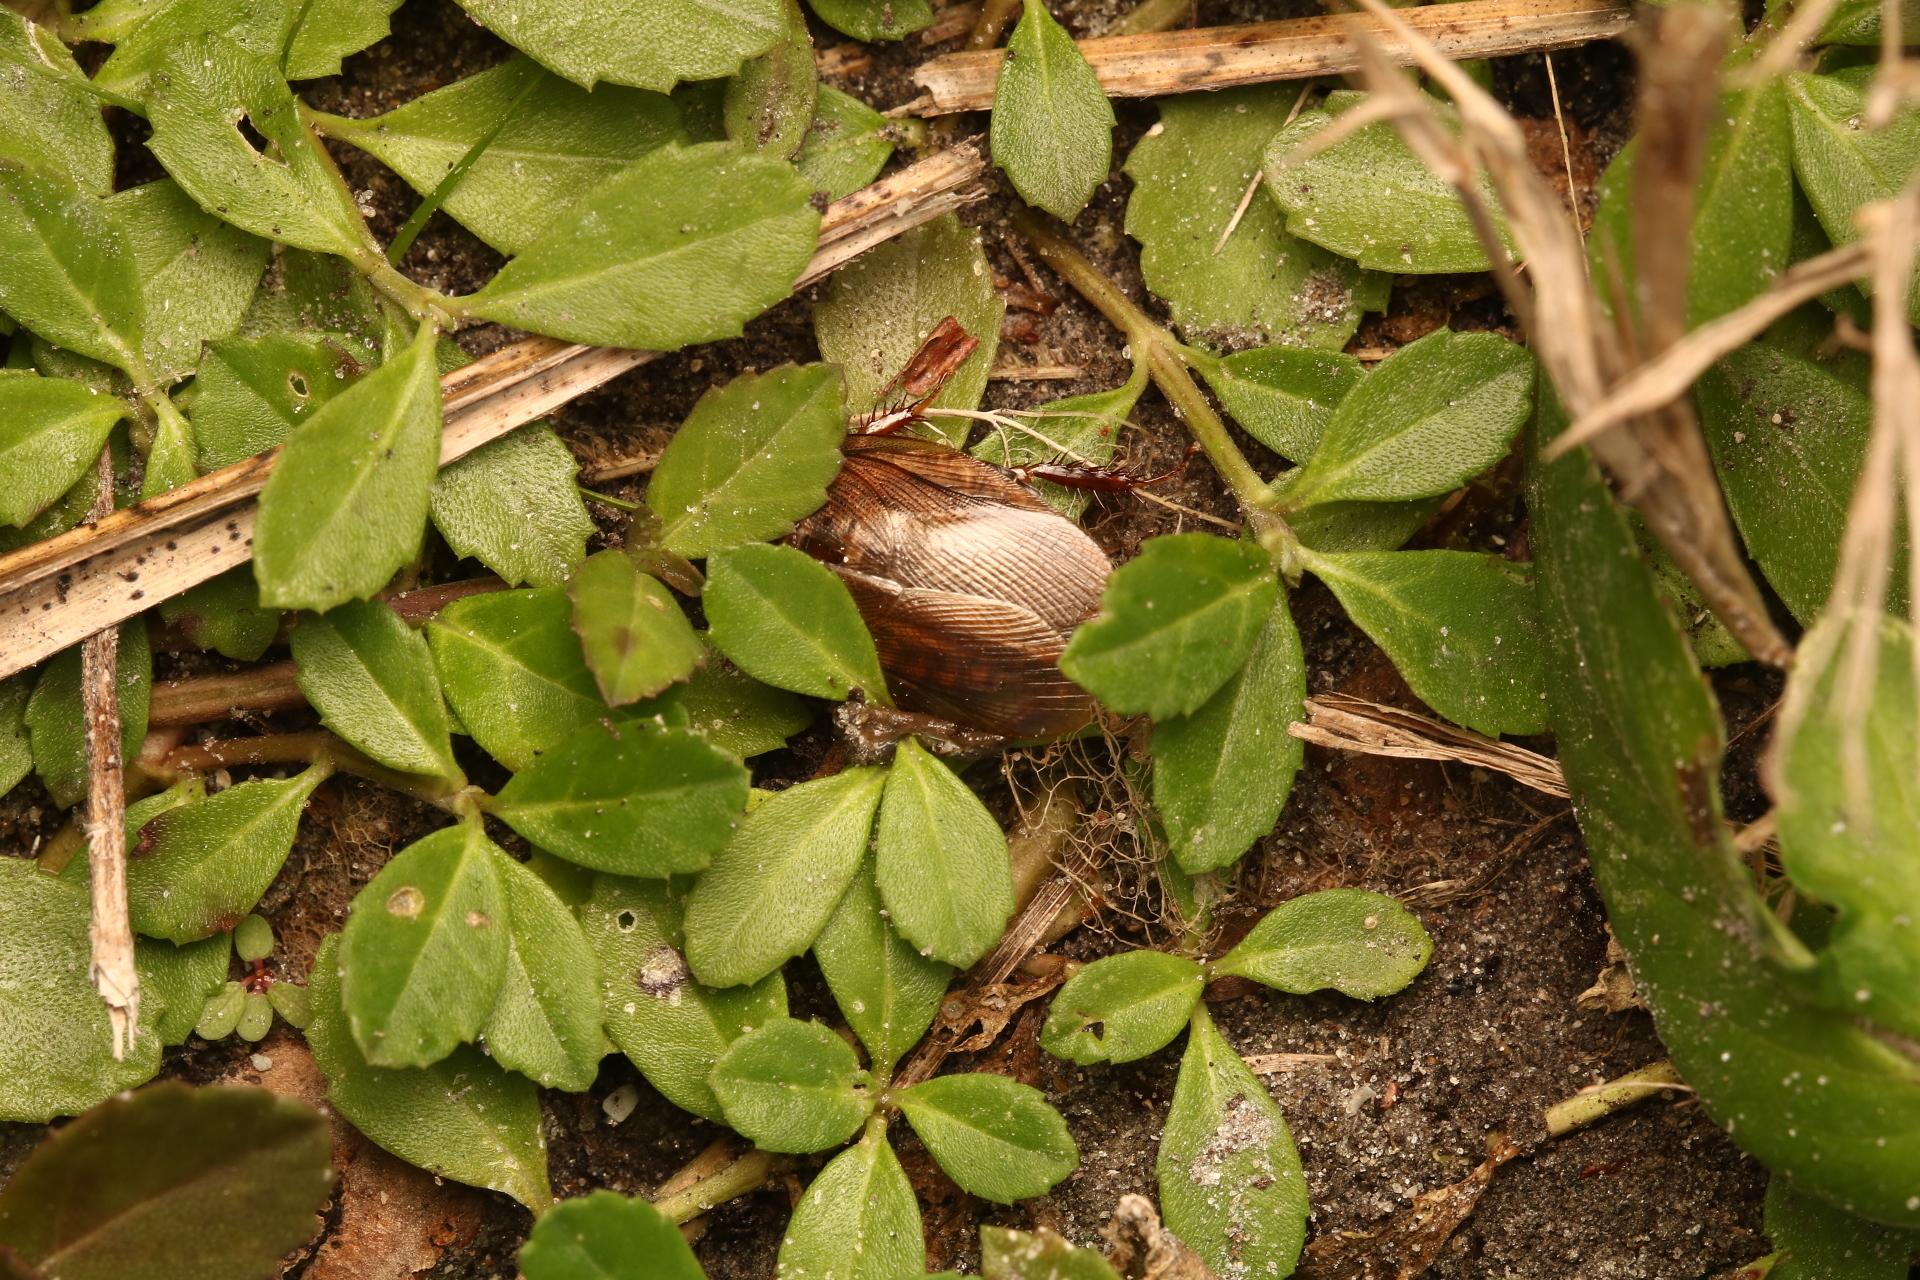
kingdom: Animalia
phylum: Arthropoda
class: Insecta
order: Blattodea
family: Blaberidae
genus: Pycnoscelus
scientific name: Pycnoscelus surinamensis
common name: Surinam cockroach
